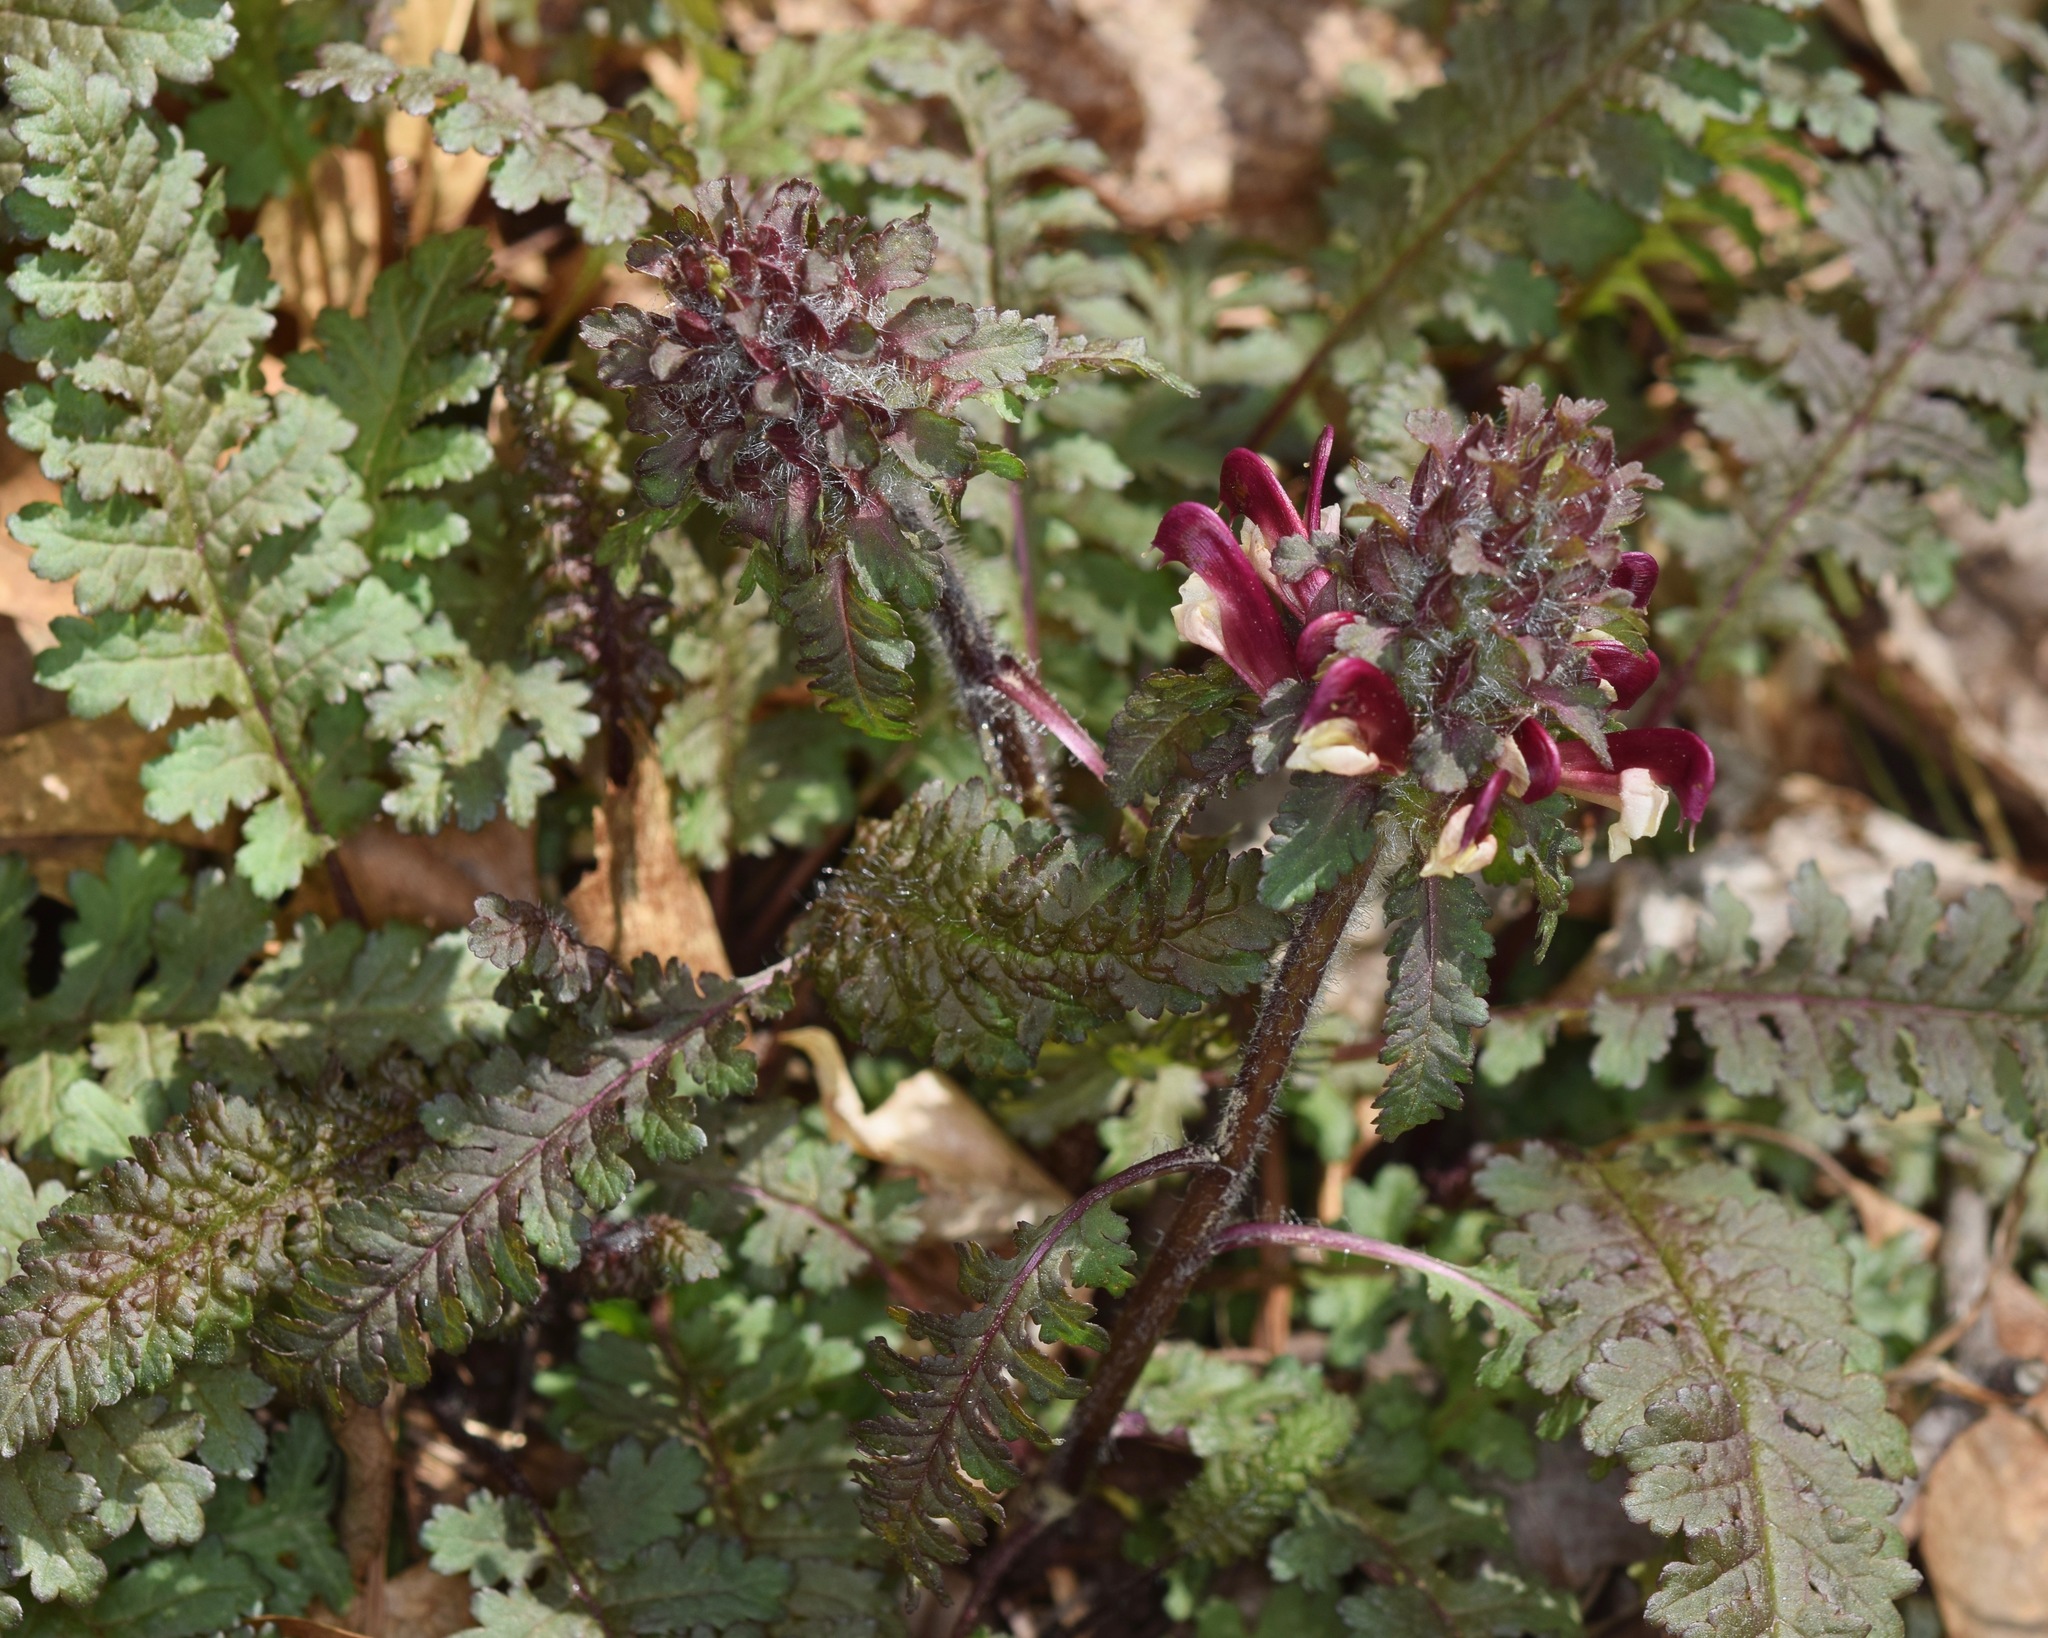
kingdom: Plantae
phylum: Tracheophyta
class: Magnoliopsida
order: Lamiales
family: Orobanchaceae
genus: Pedicularis
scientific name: Pedicularis canadensis
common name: Early lousewort
